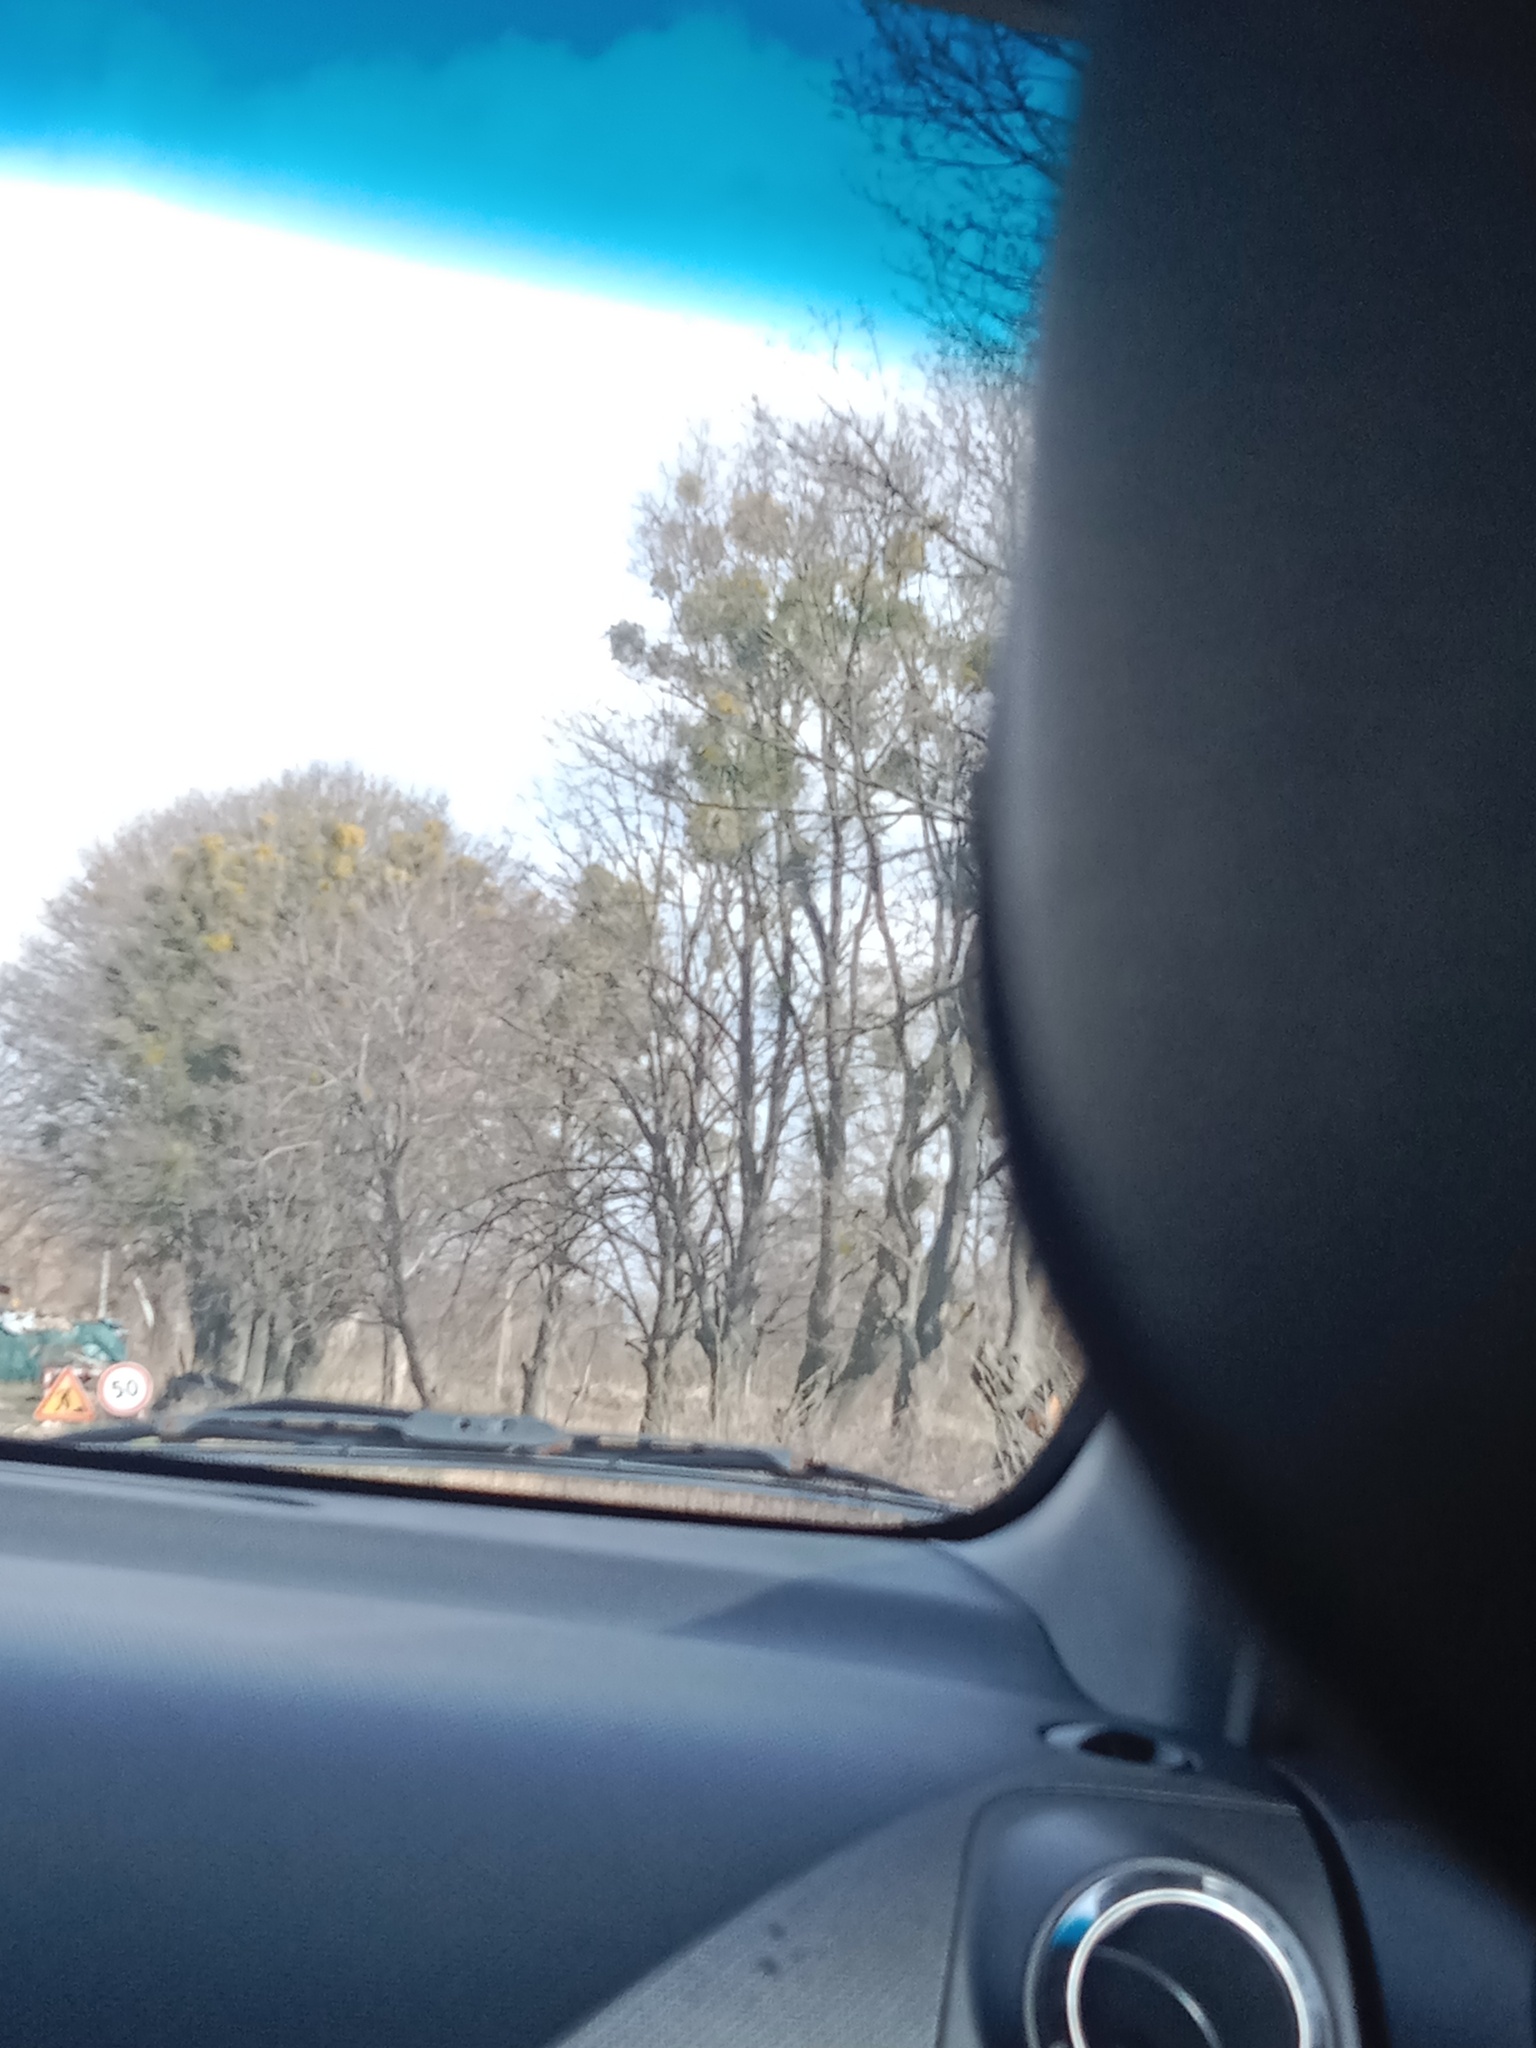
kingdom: Plantae
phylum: Tracheophyta
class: Magnoliopsida
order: Santalales
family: Viscaceae
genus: Viscum
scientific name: Viscum album
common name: Mistletoe
